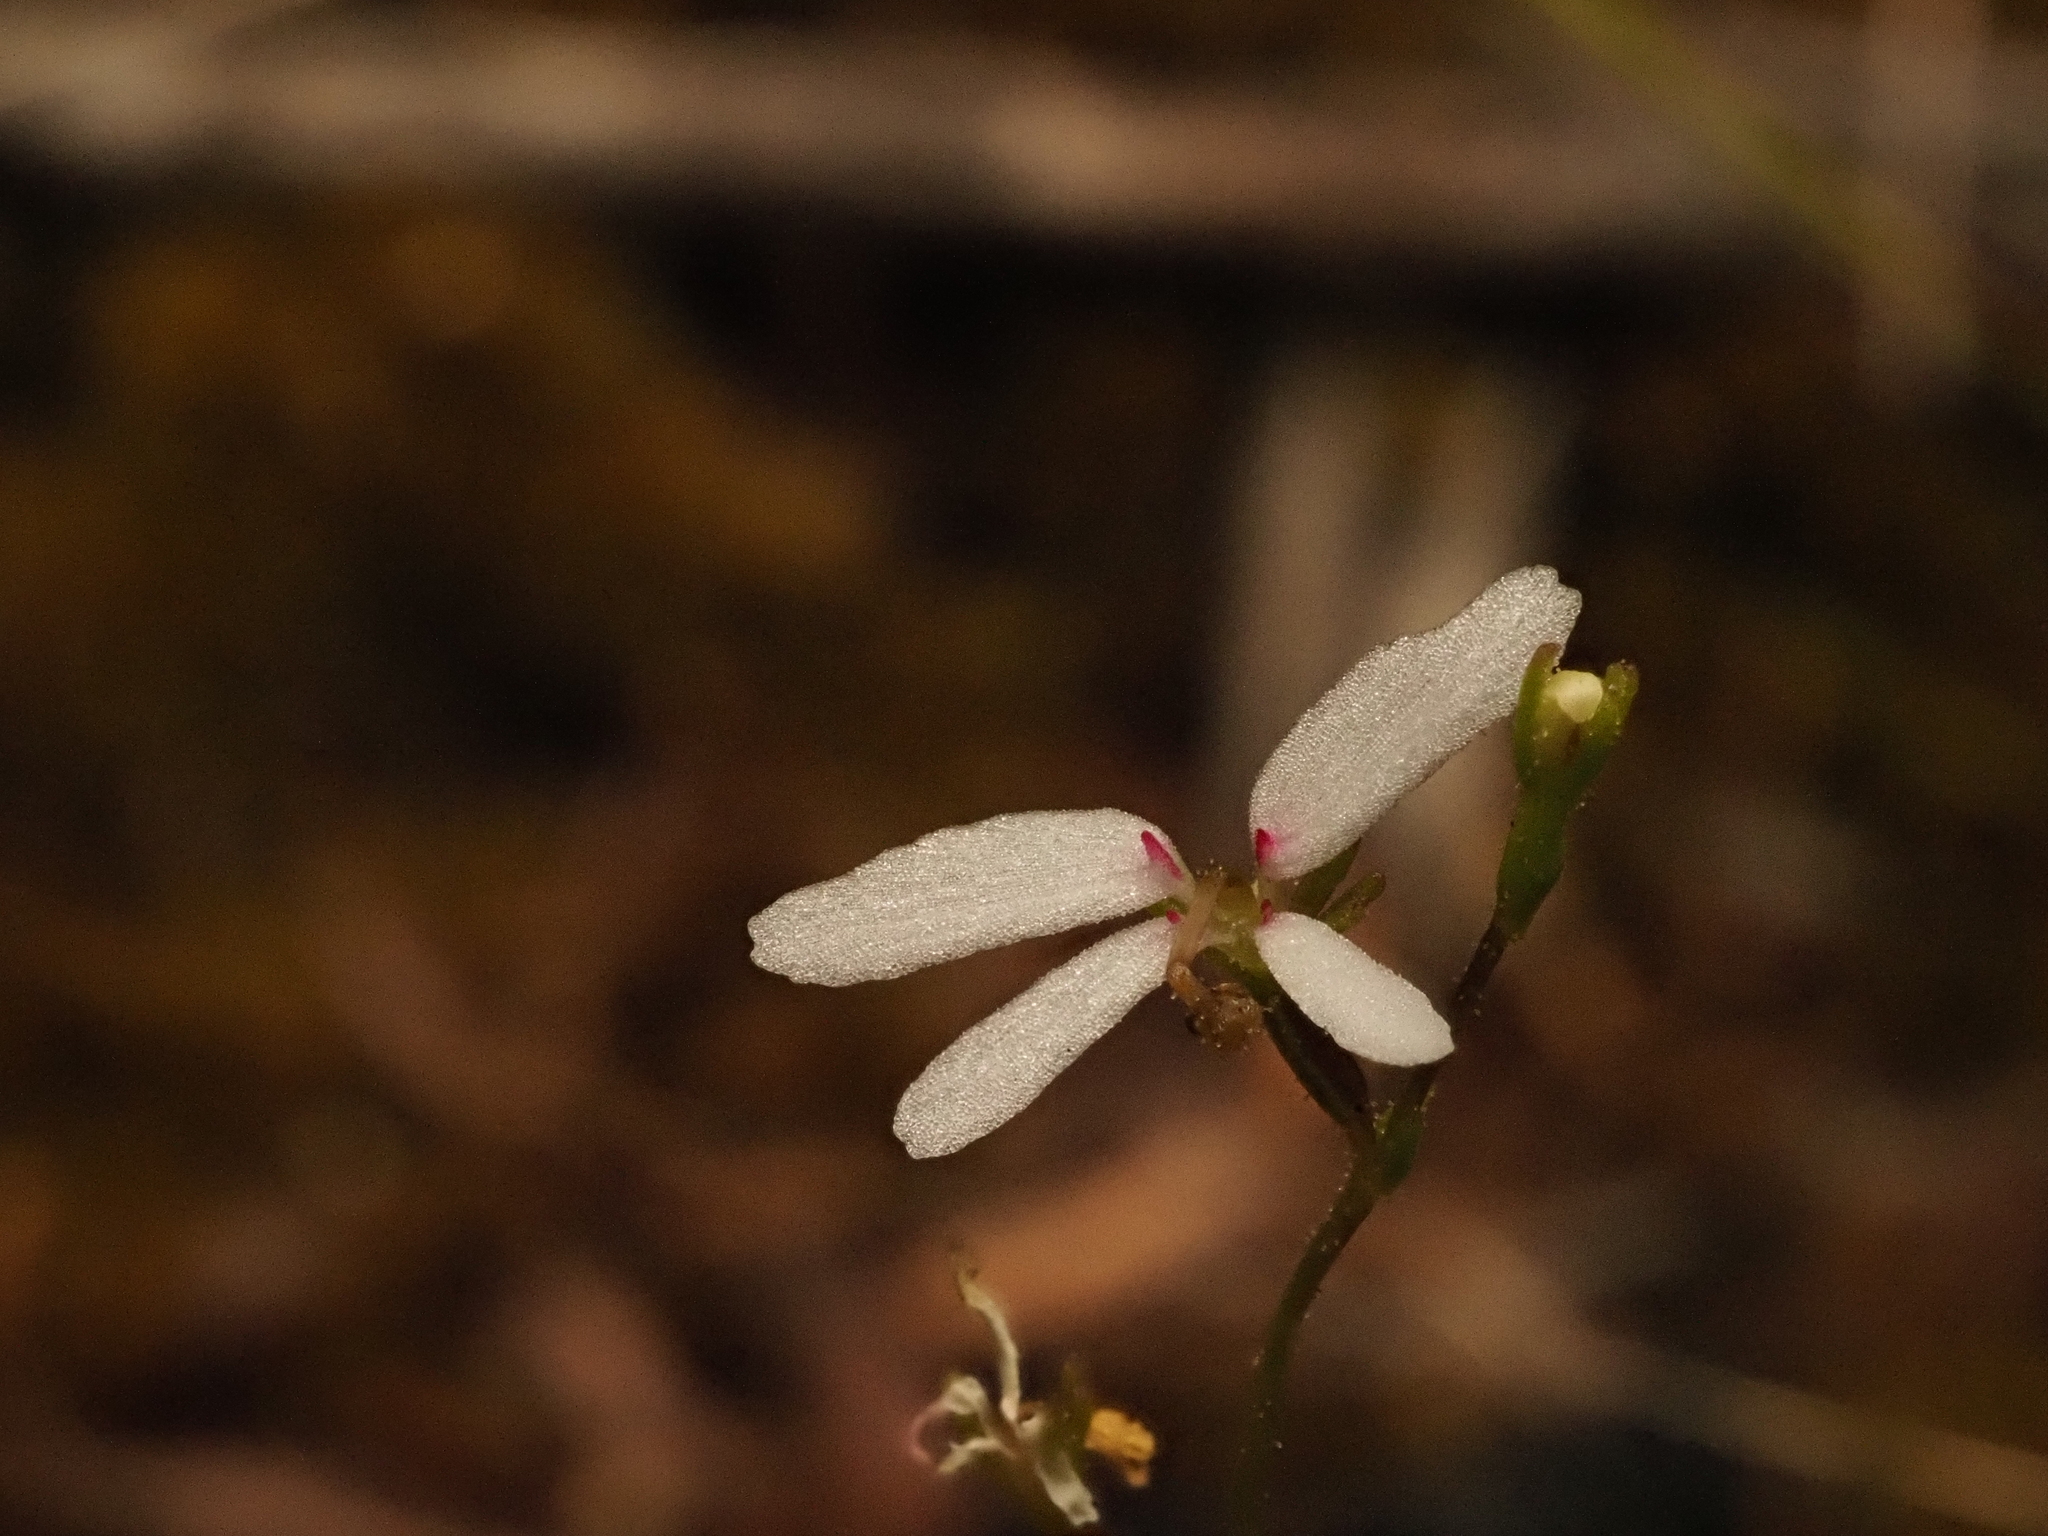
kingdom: Plantae
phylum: Tracheophyta
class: Magnoliopsida
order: Asterales
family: Stylidiaceae
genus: Stylidium
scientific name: Stylidium pygmaeum
